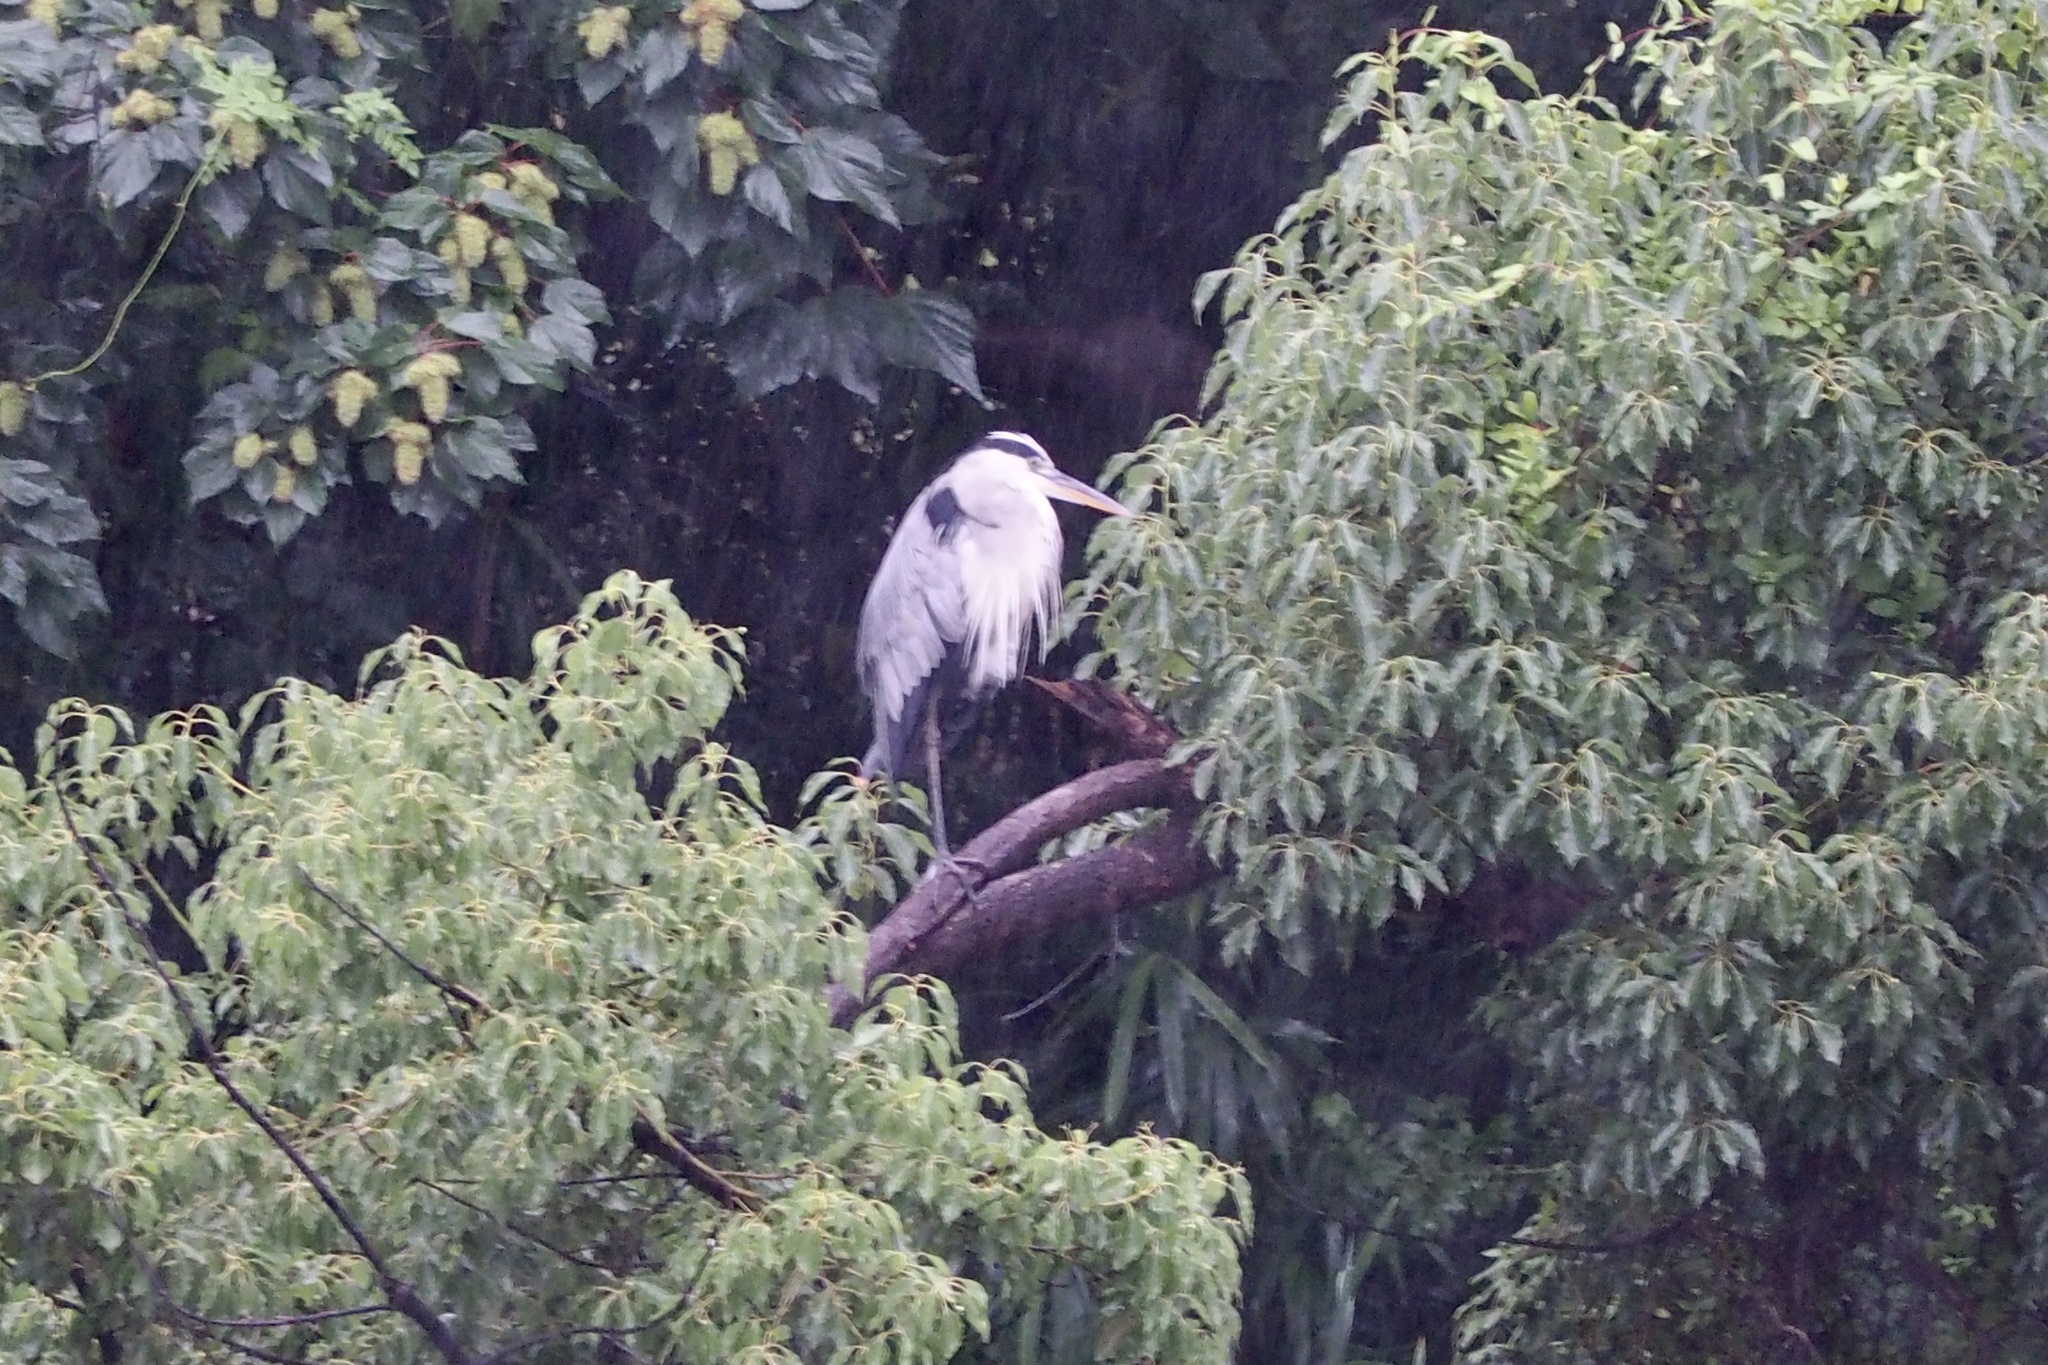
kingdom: Animalia
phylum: Chordata
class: Aves
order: Pelecaniformes
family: Ardeidae
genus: Ardea
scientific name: Ardea cinerea
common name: Grey heron
